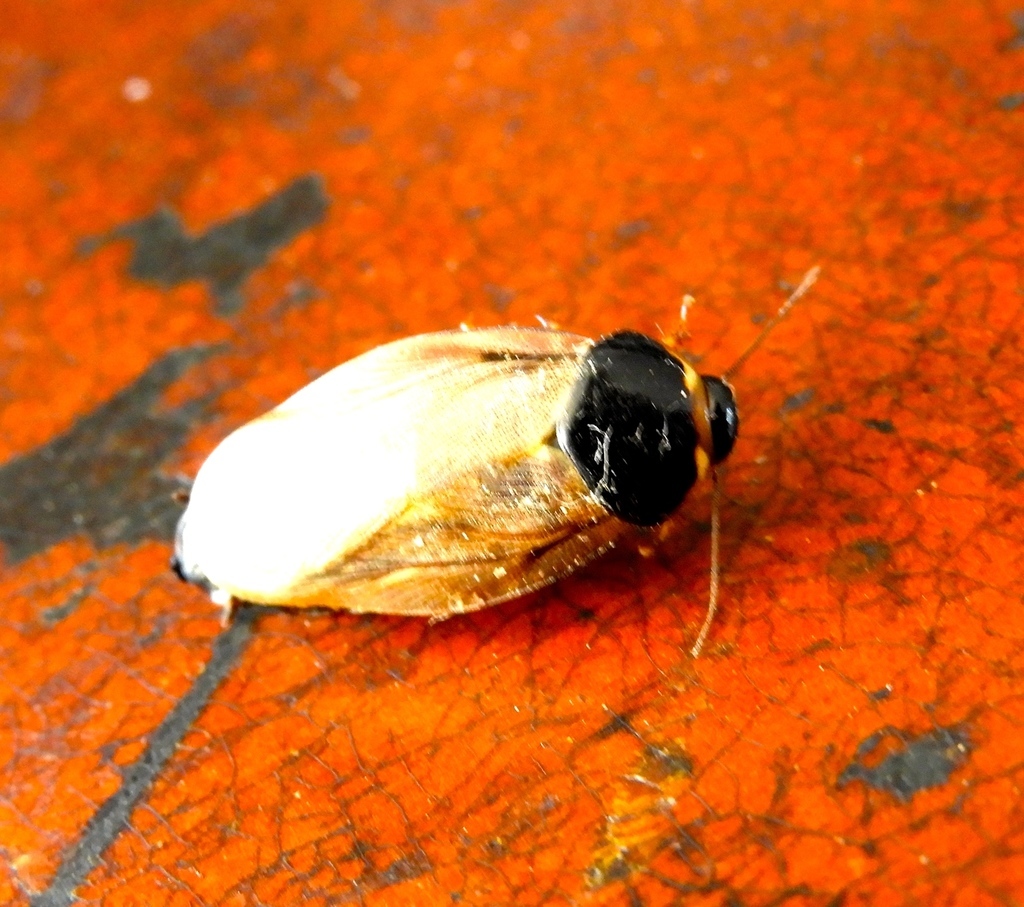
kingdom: Animalia
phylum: Arthropoda
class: Insecta
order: Blattodea
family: Blaberidae
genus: Pycnoscelus
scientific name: Pycnoscelus surinamensis
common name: Surinam cockroach
